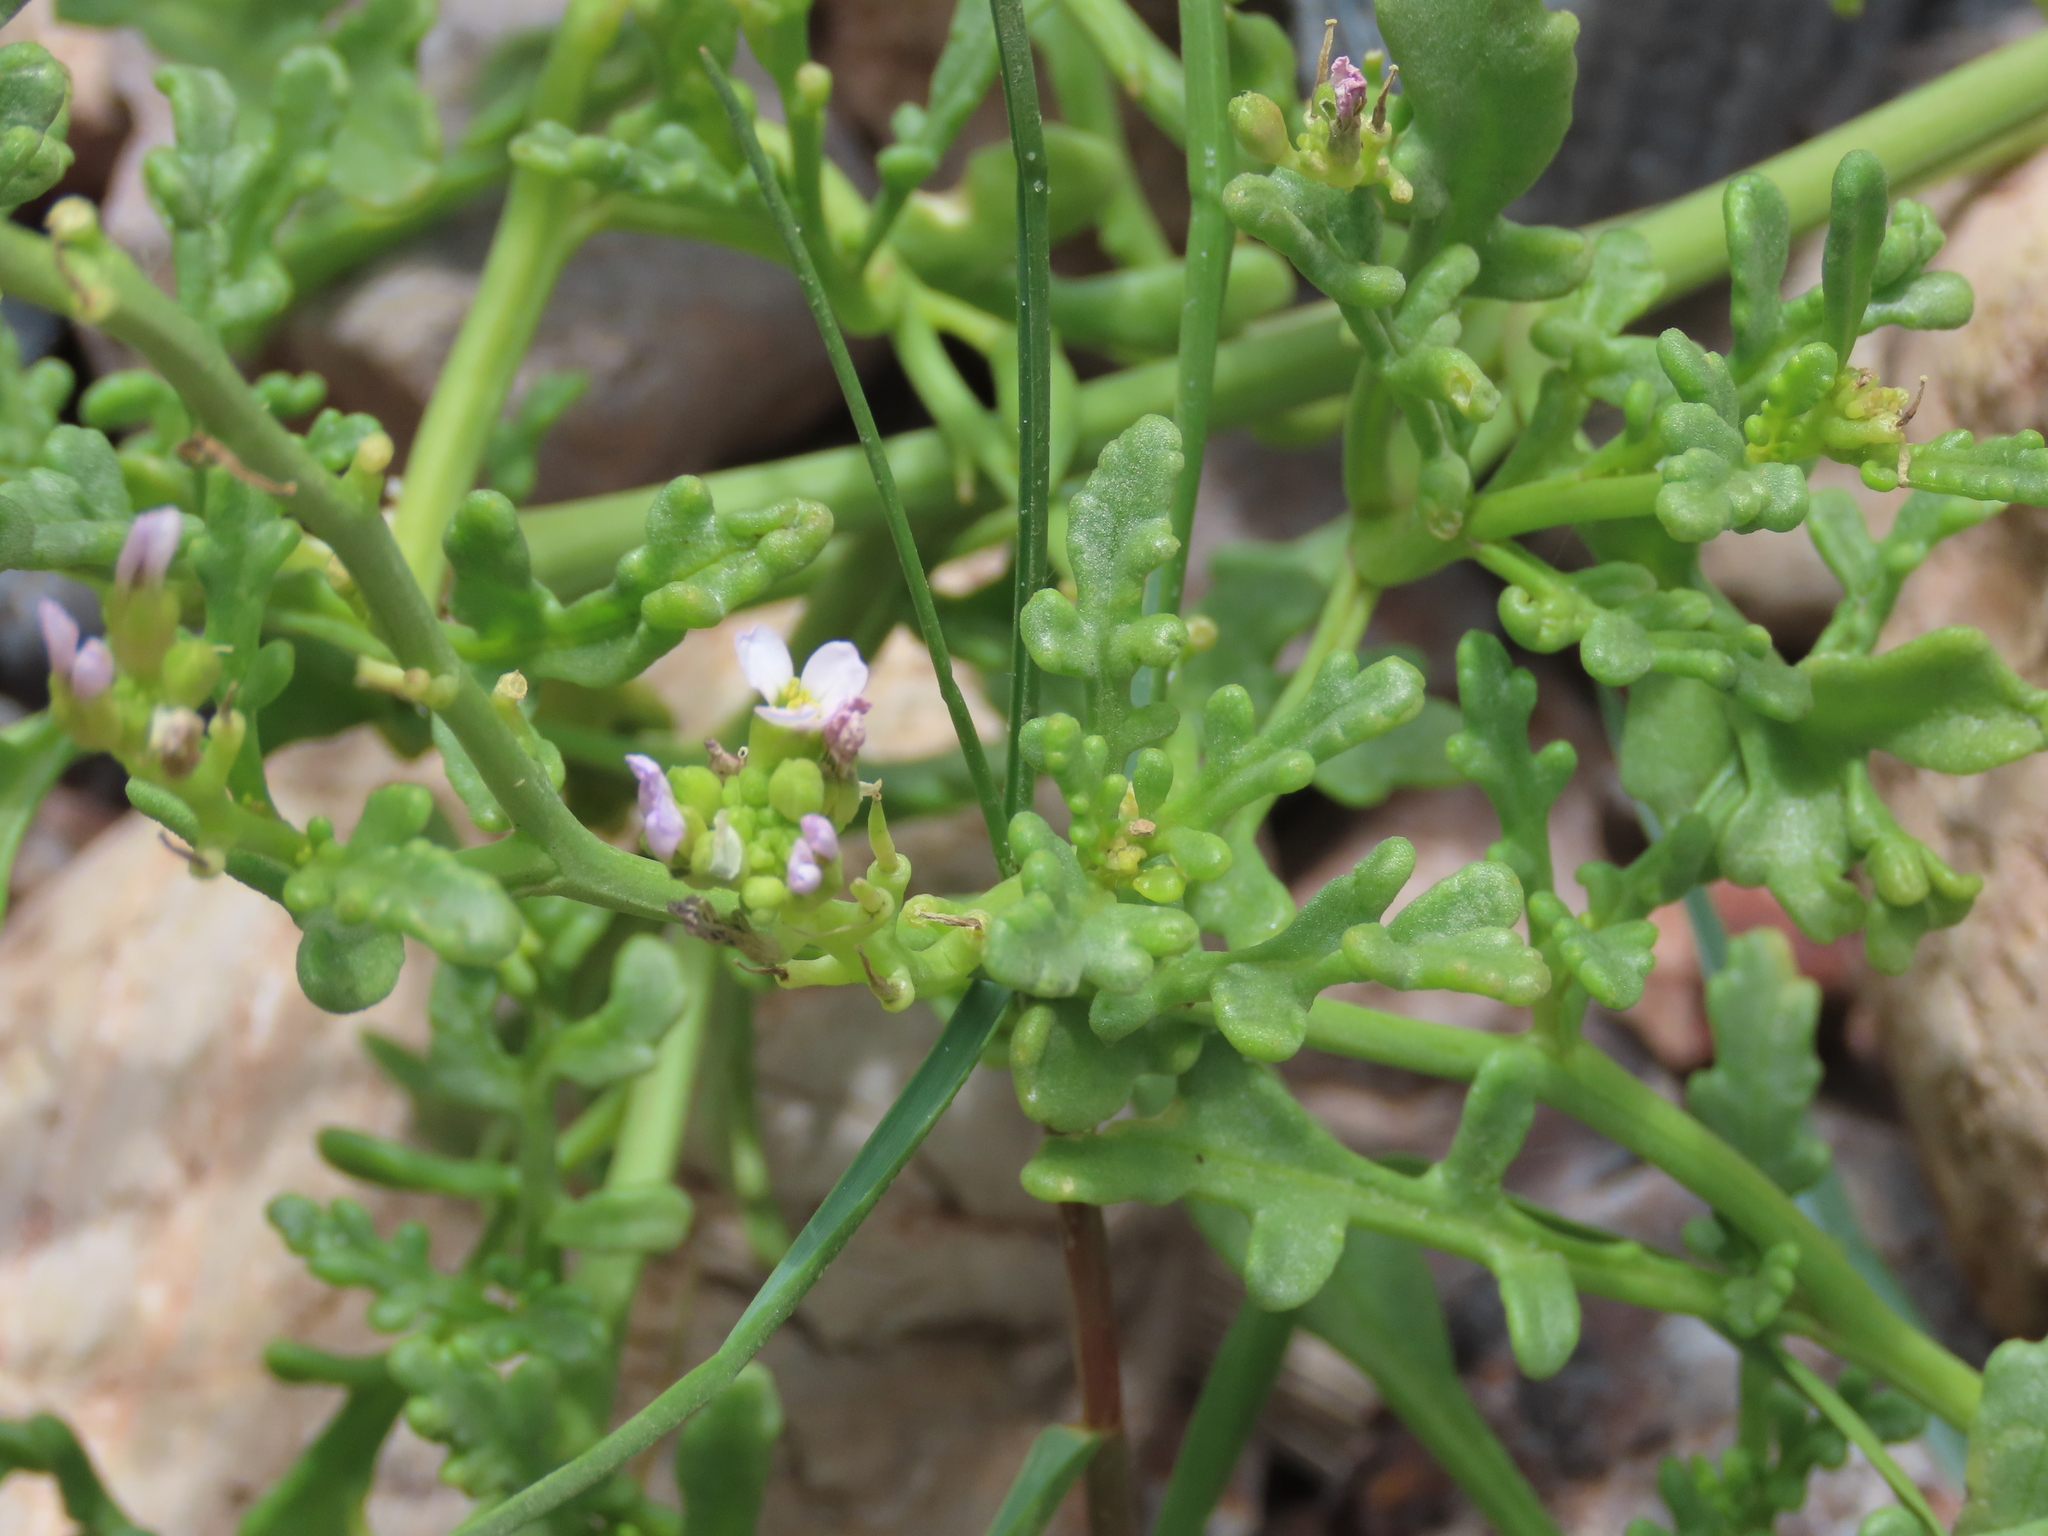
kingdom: Plantae
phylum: Tracheophyta
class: Magnoliopsida
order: Brassicales
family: Brassicaceae
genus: Cakile
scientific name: Cakile maritima
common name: Sea rocket
